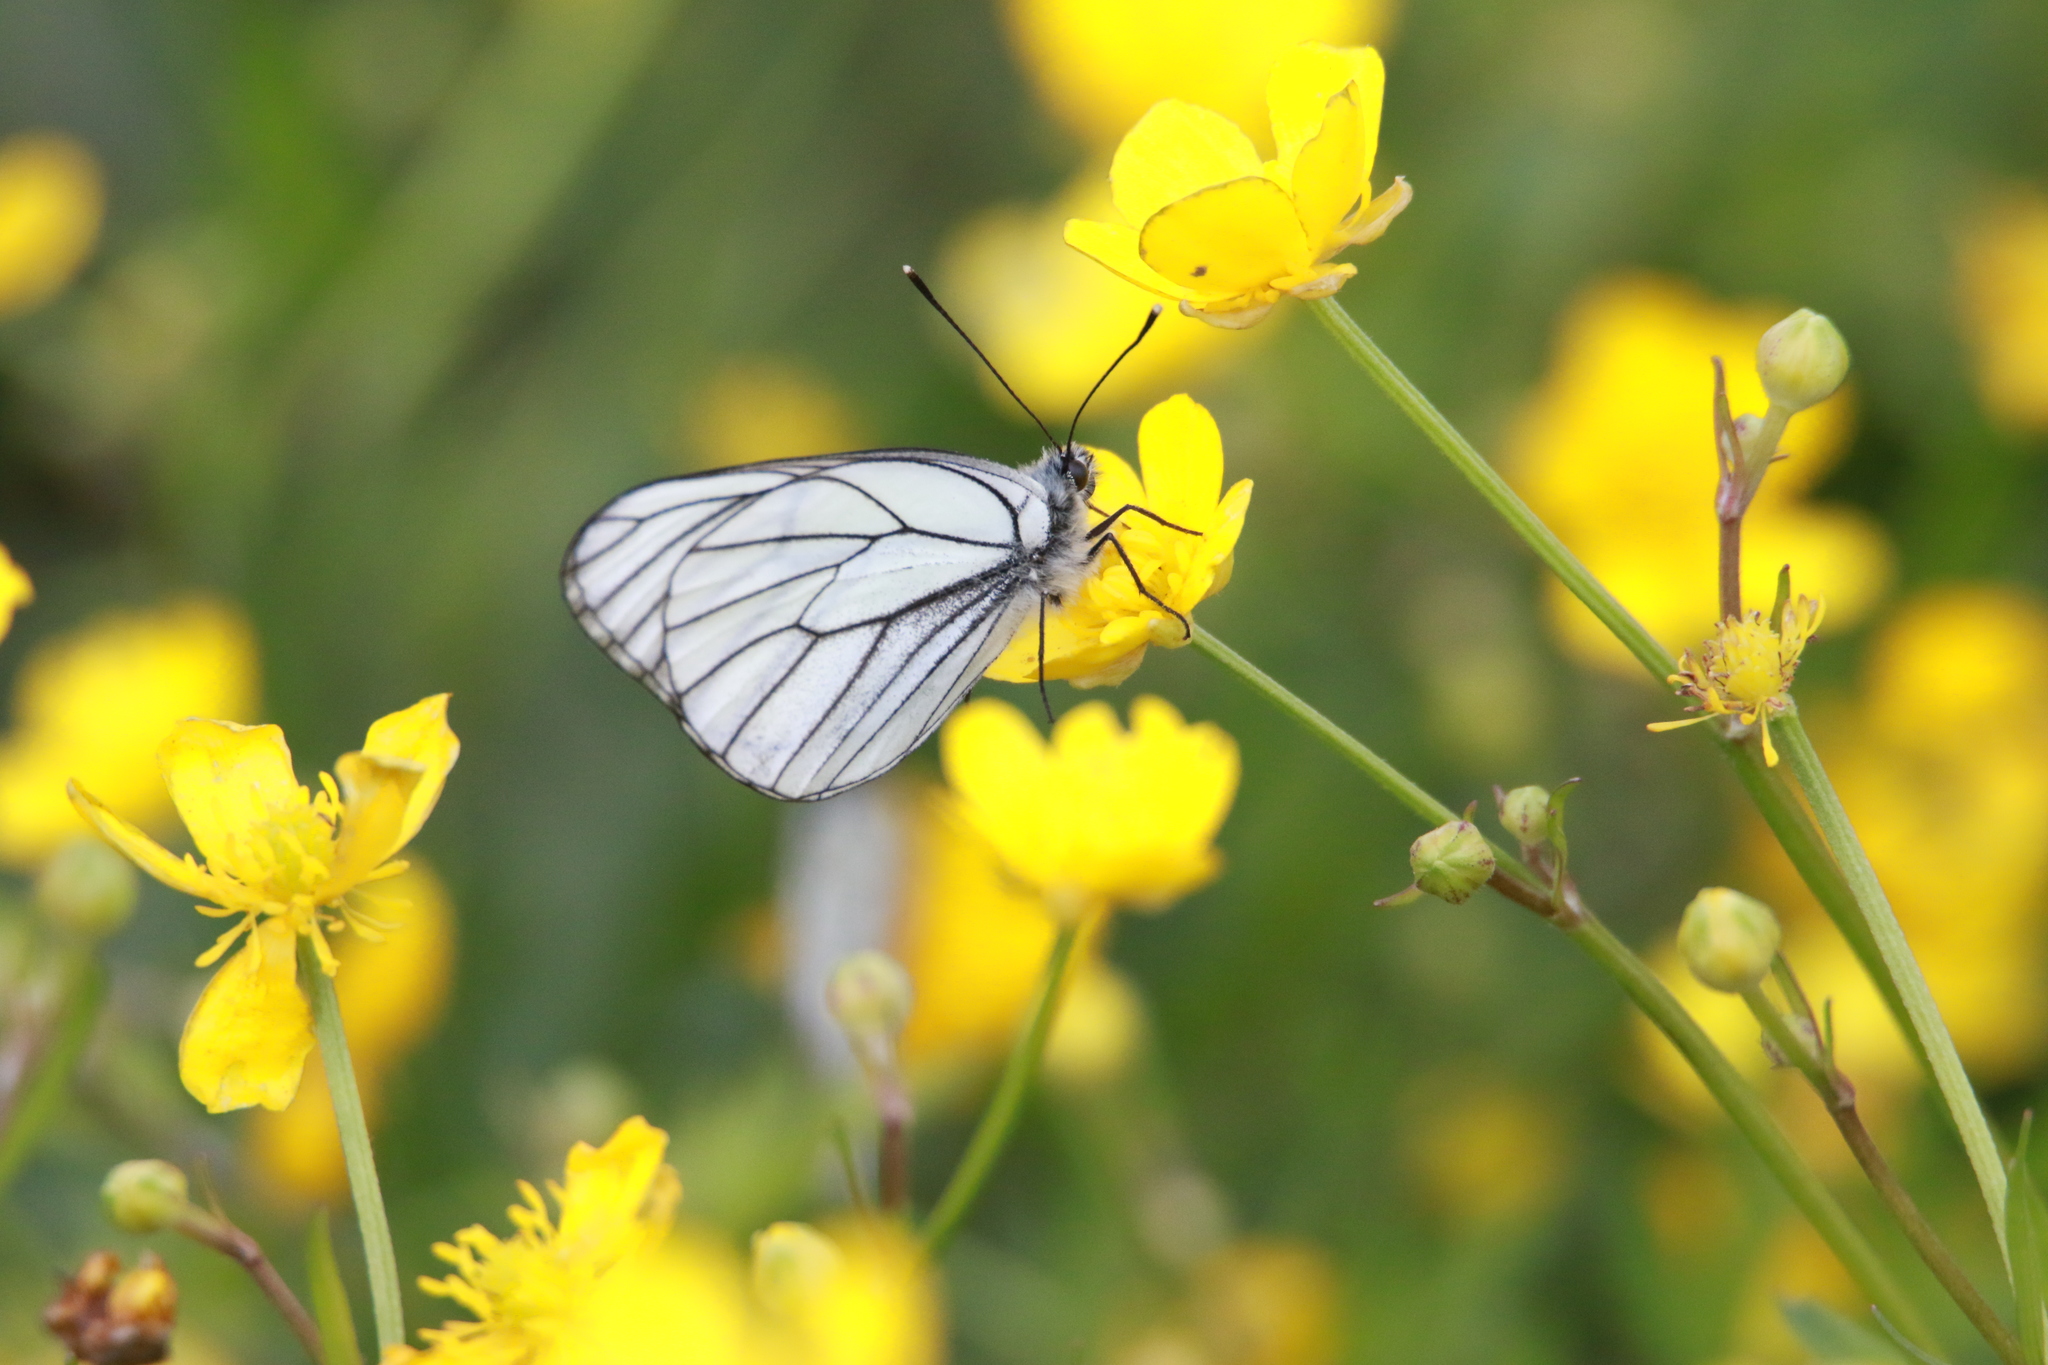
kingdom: Animalia
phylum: Arthropoda
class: Insecta
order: Lepidoptera
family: Pieridae
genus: Aporia
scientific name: Aporia crataegi
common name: Black-veined white
